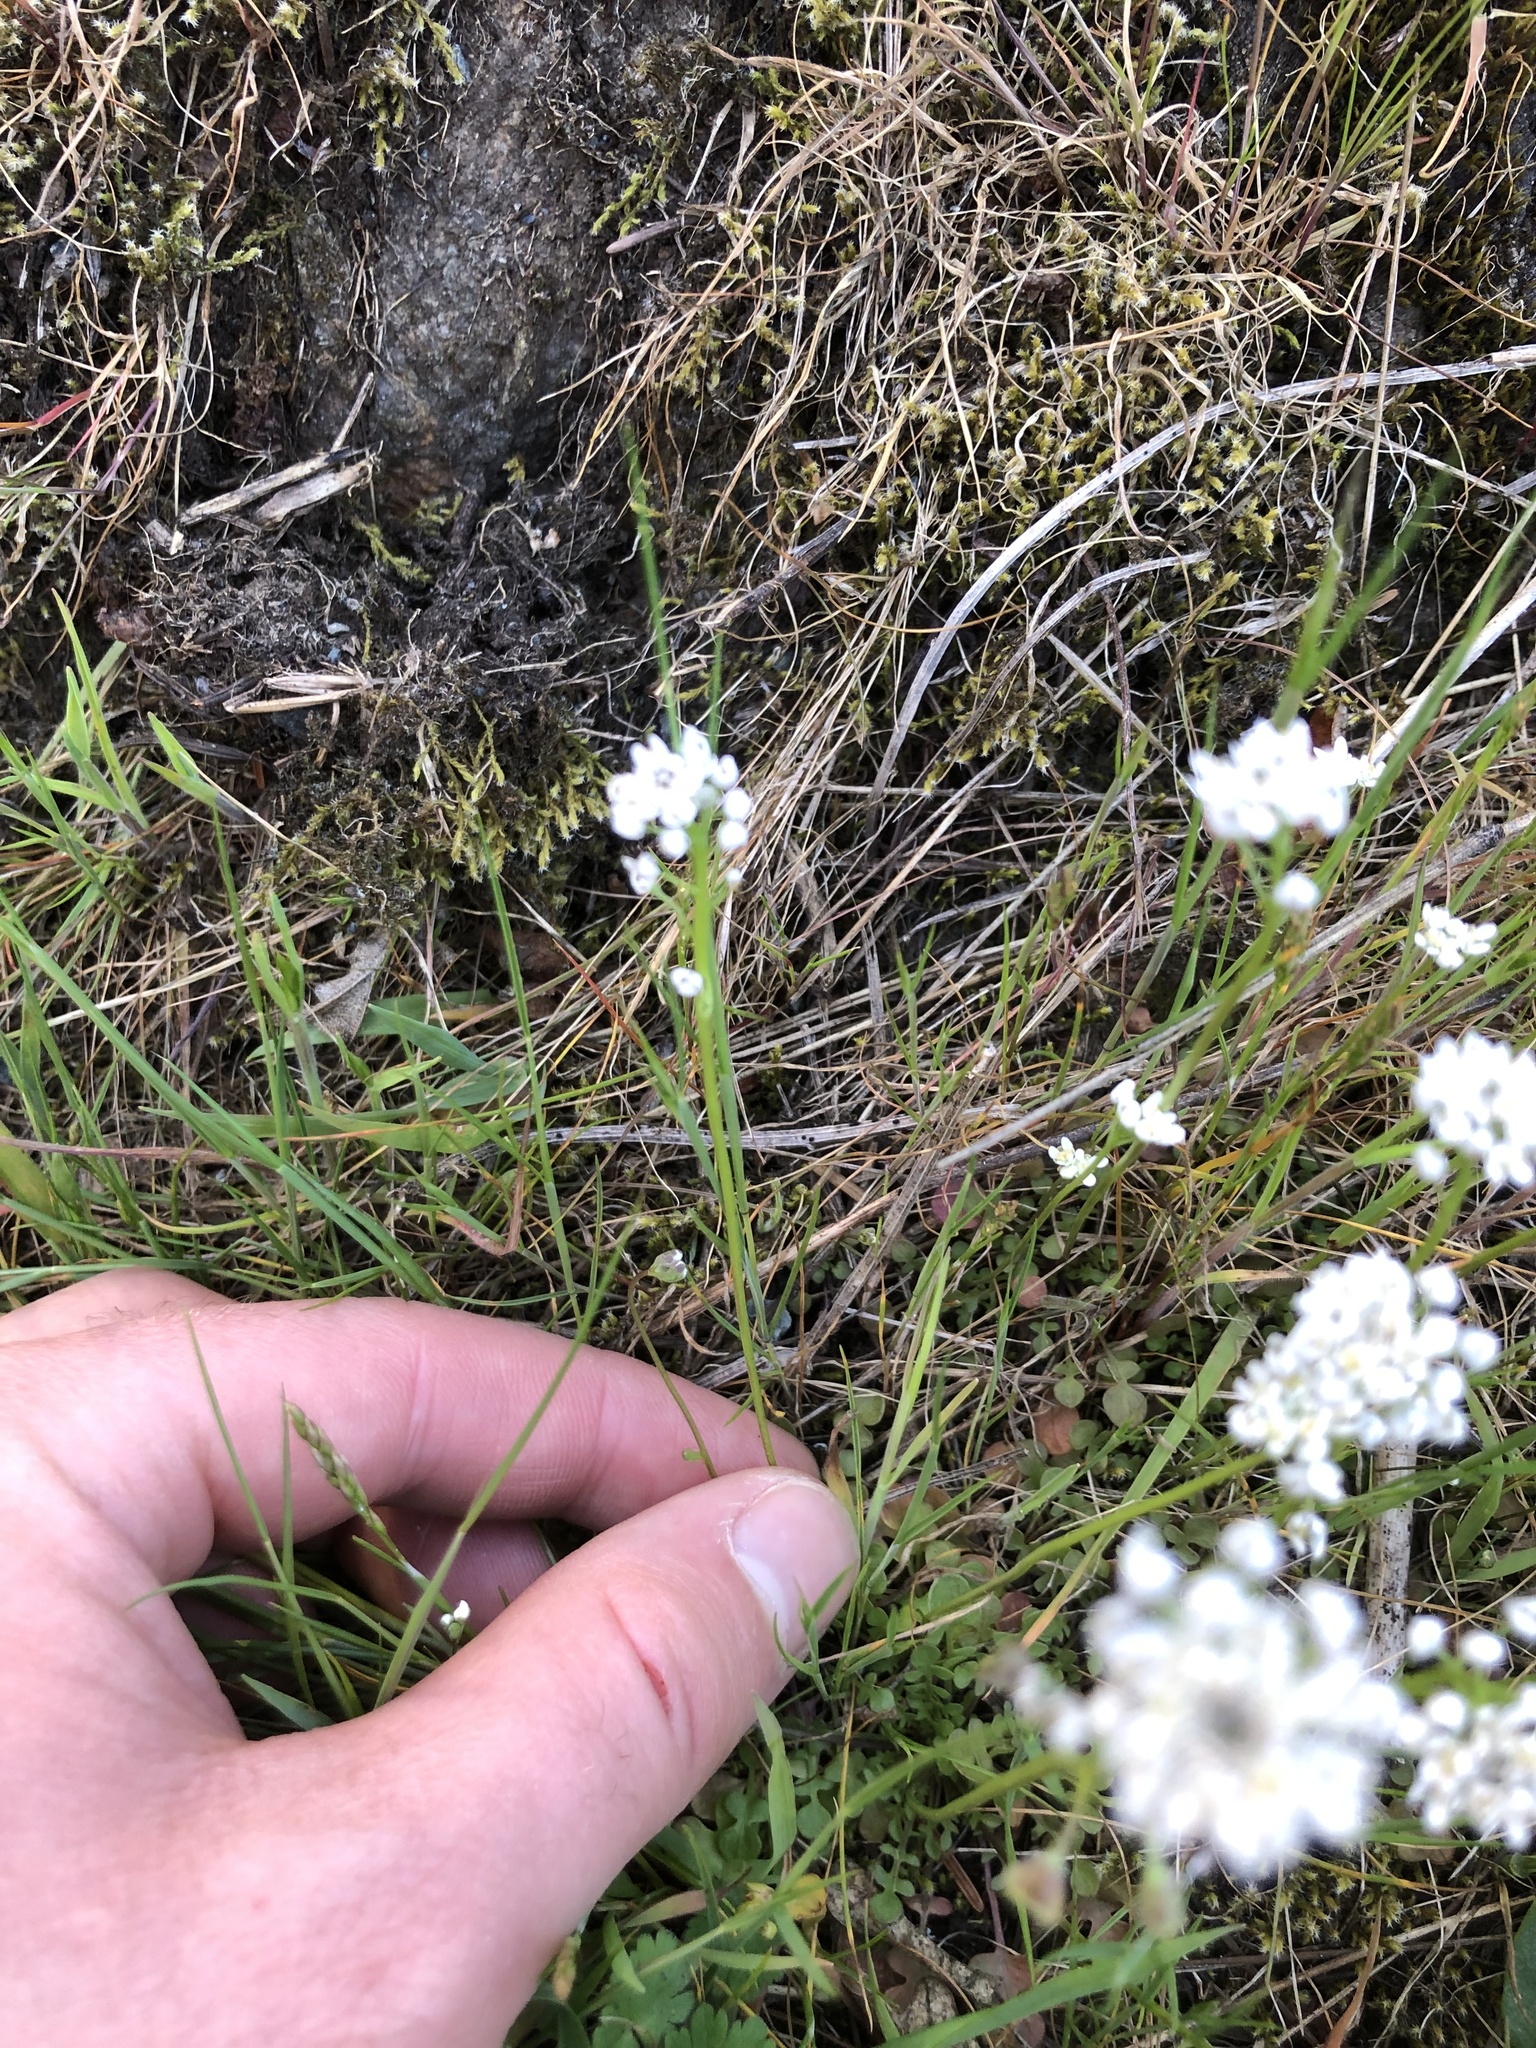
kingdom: Plantae
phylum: Tracheophyta
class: Magnoliopsida
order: Brassicales
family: Brassicaceae
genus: Teesdalia
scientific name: Teesdalia nudicaulis
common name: Shepherd's cress
